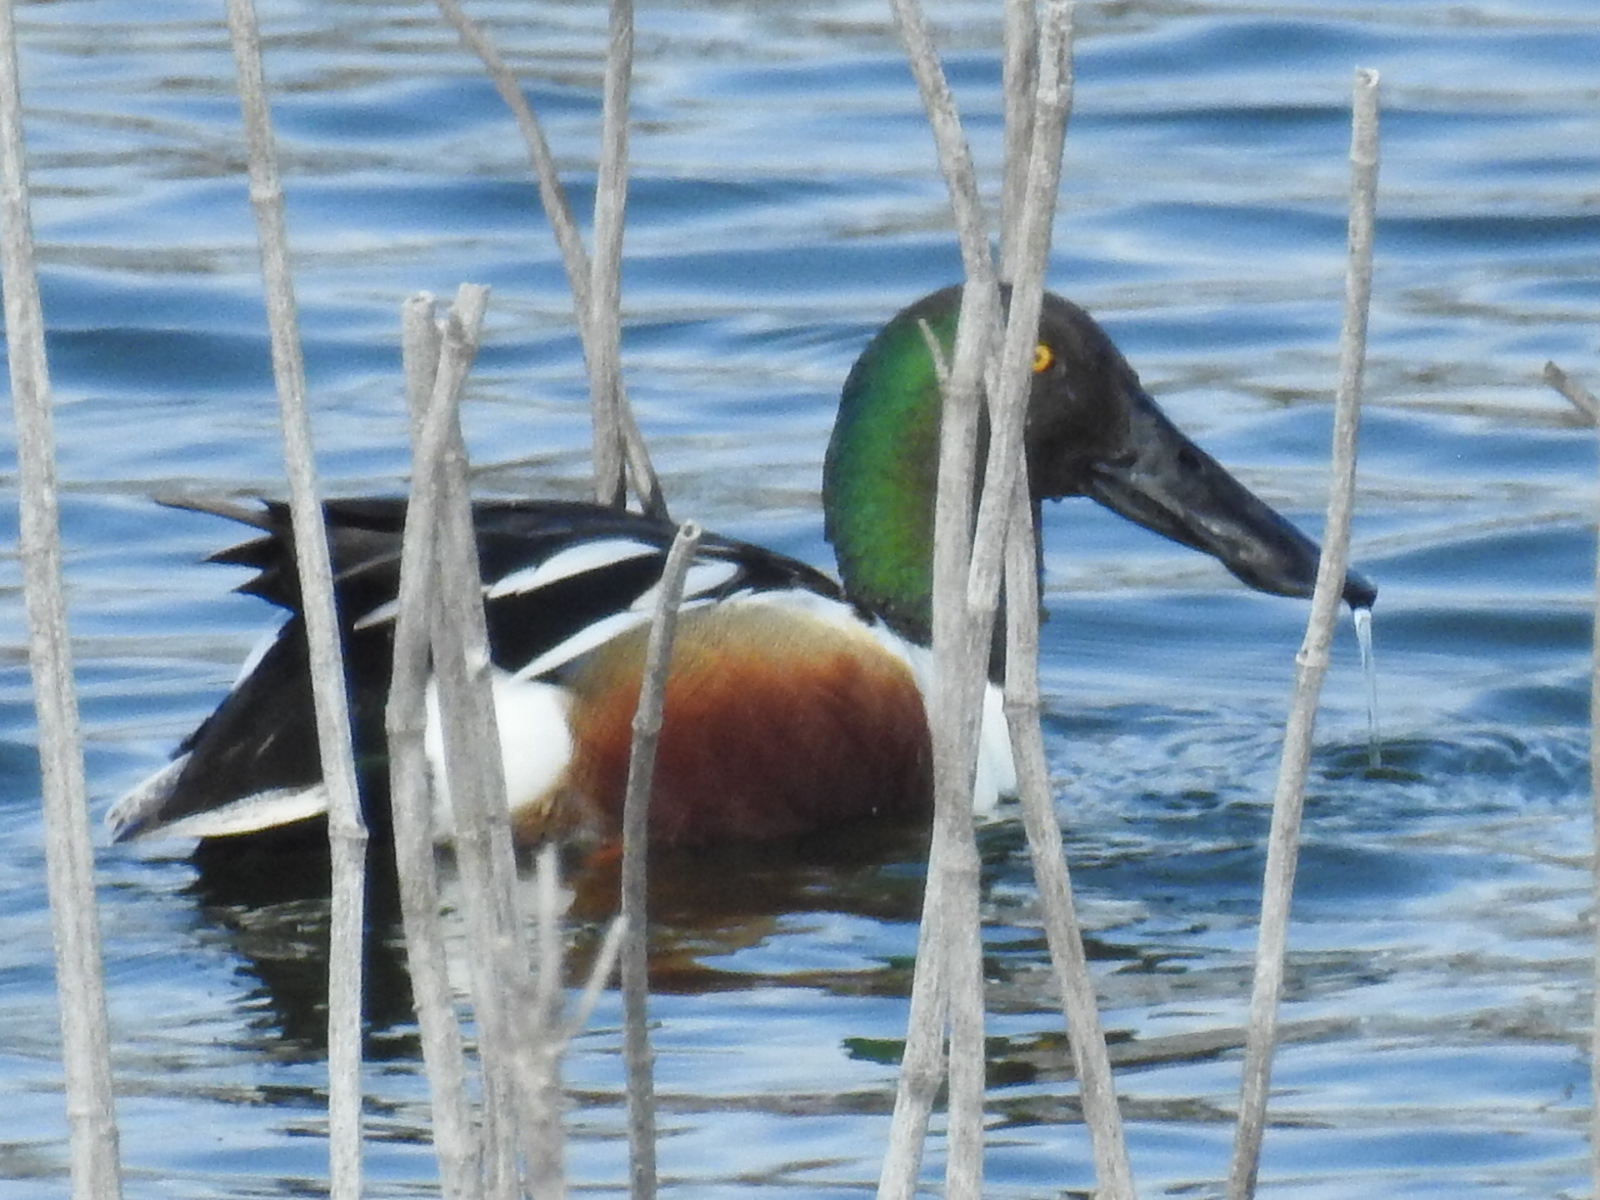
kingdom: Animalia
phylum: Chordata
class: Aves
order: Anseriformes
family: Anatidae
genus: Spatula
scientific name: Spatula clypeata
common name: Northern shoveler
